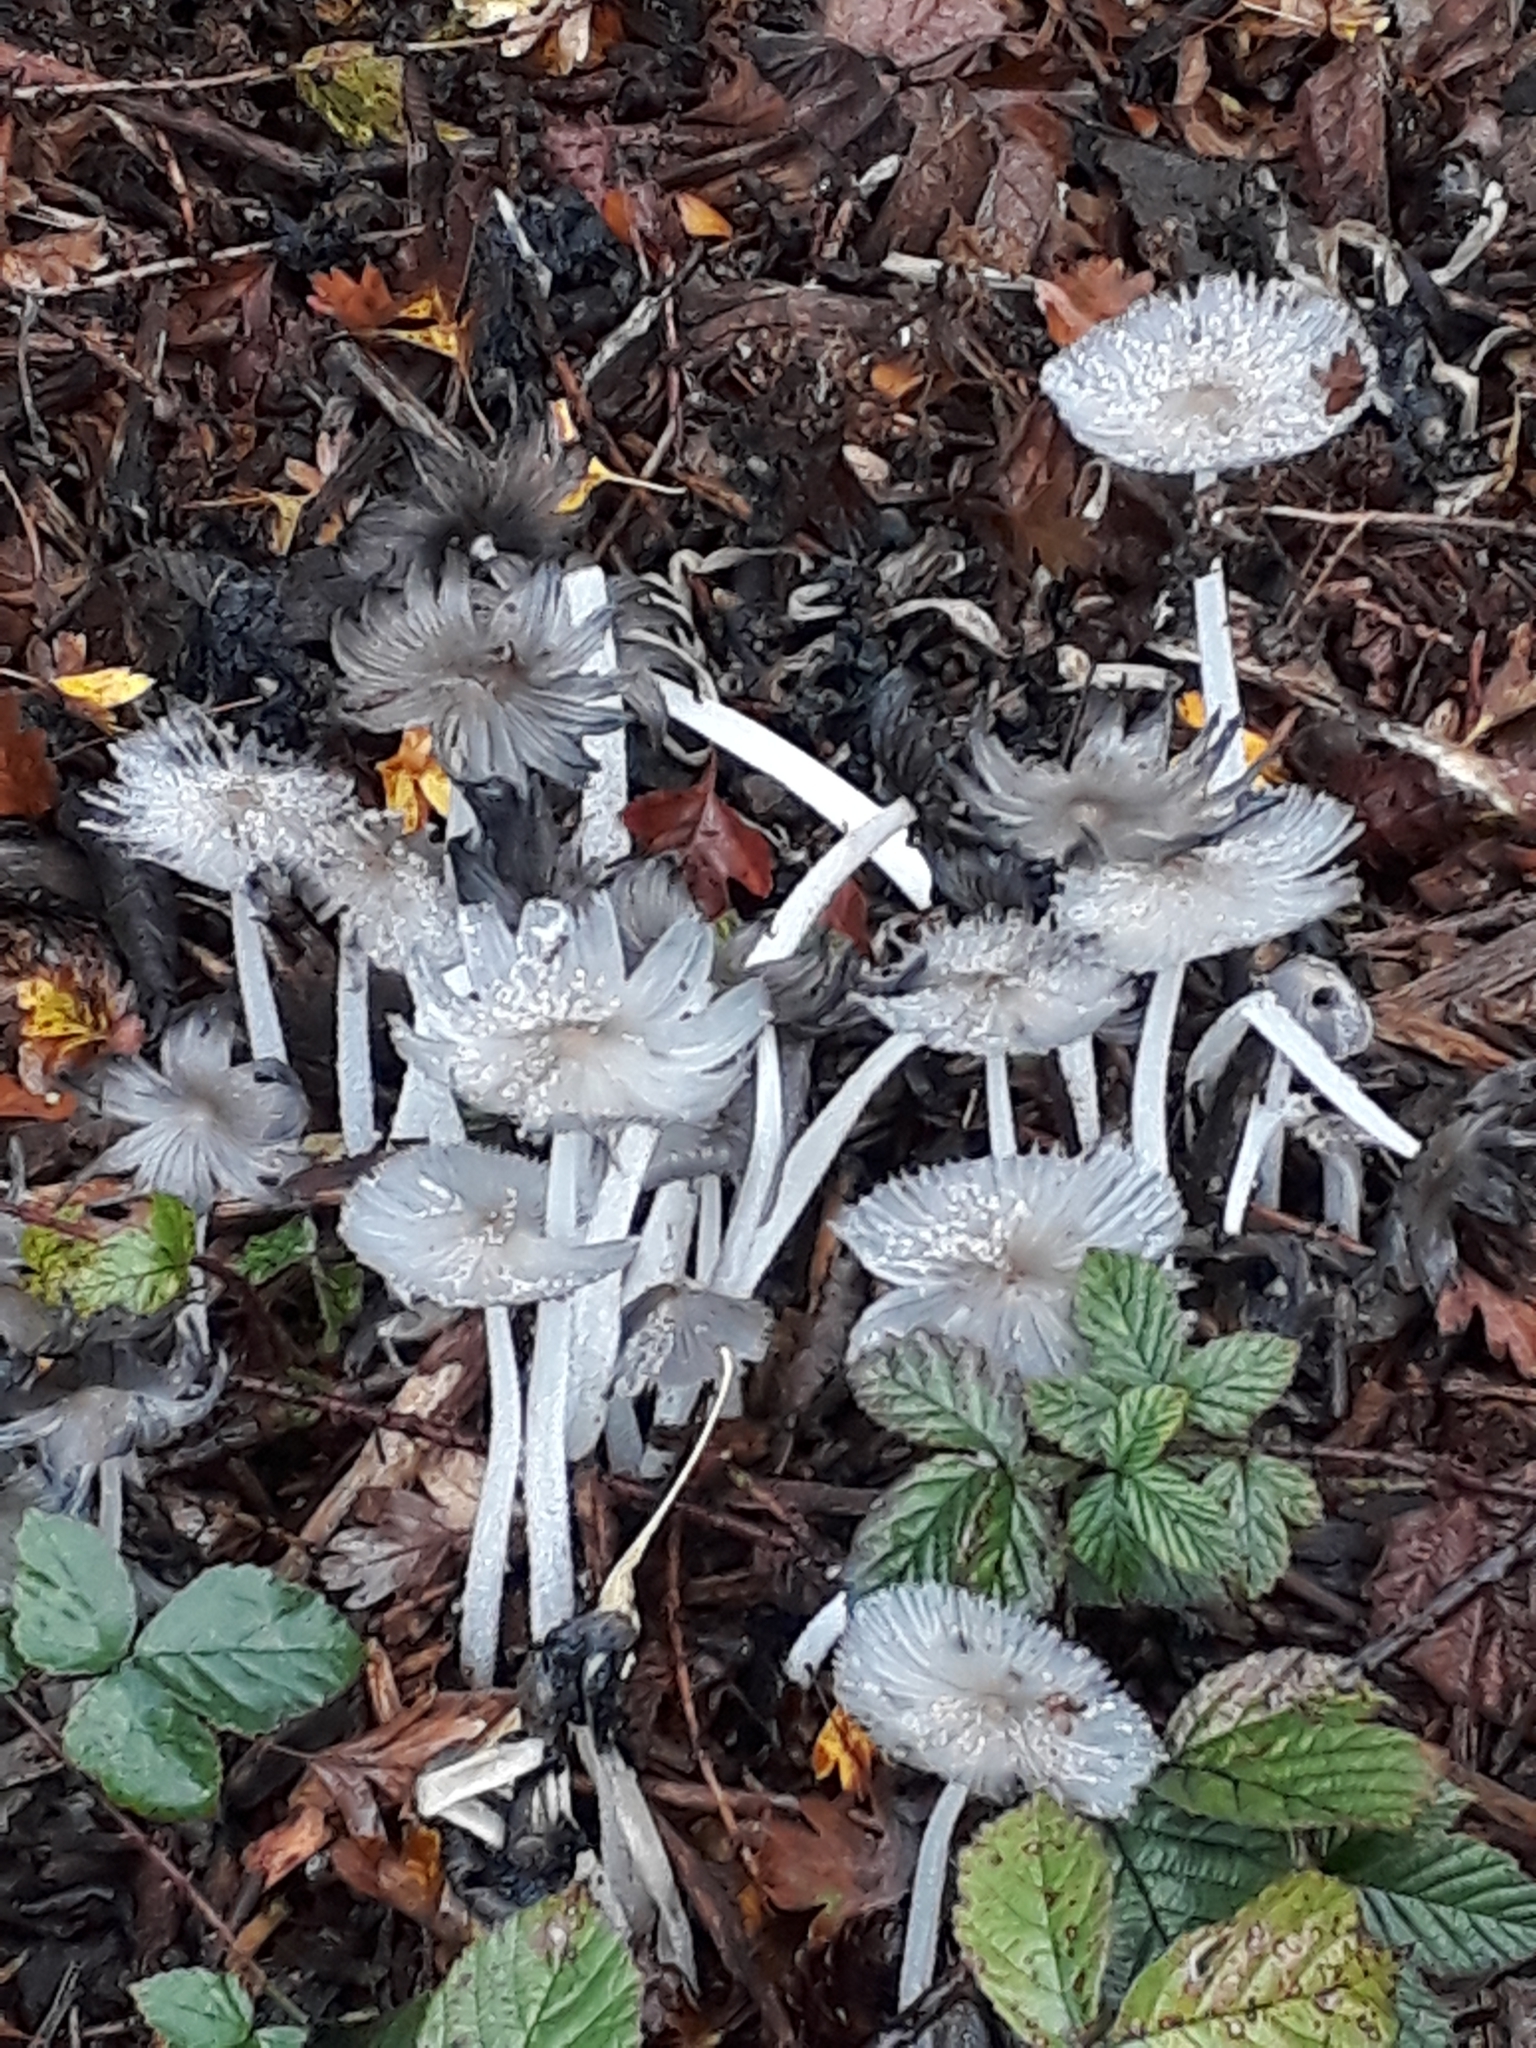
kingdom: Fungi
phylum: Basidiomycota
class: Agaricomycetes
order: Agaricales
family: Psathyrellaceae
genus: Coprinopsis
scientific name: Coprinopsis lagopus
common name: Hare'sfoot inkcap
